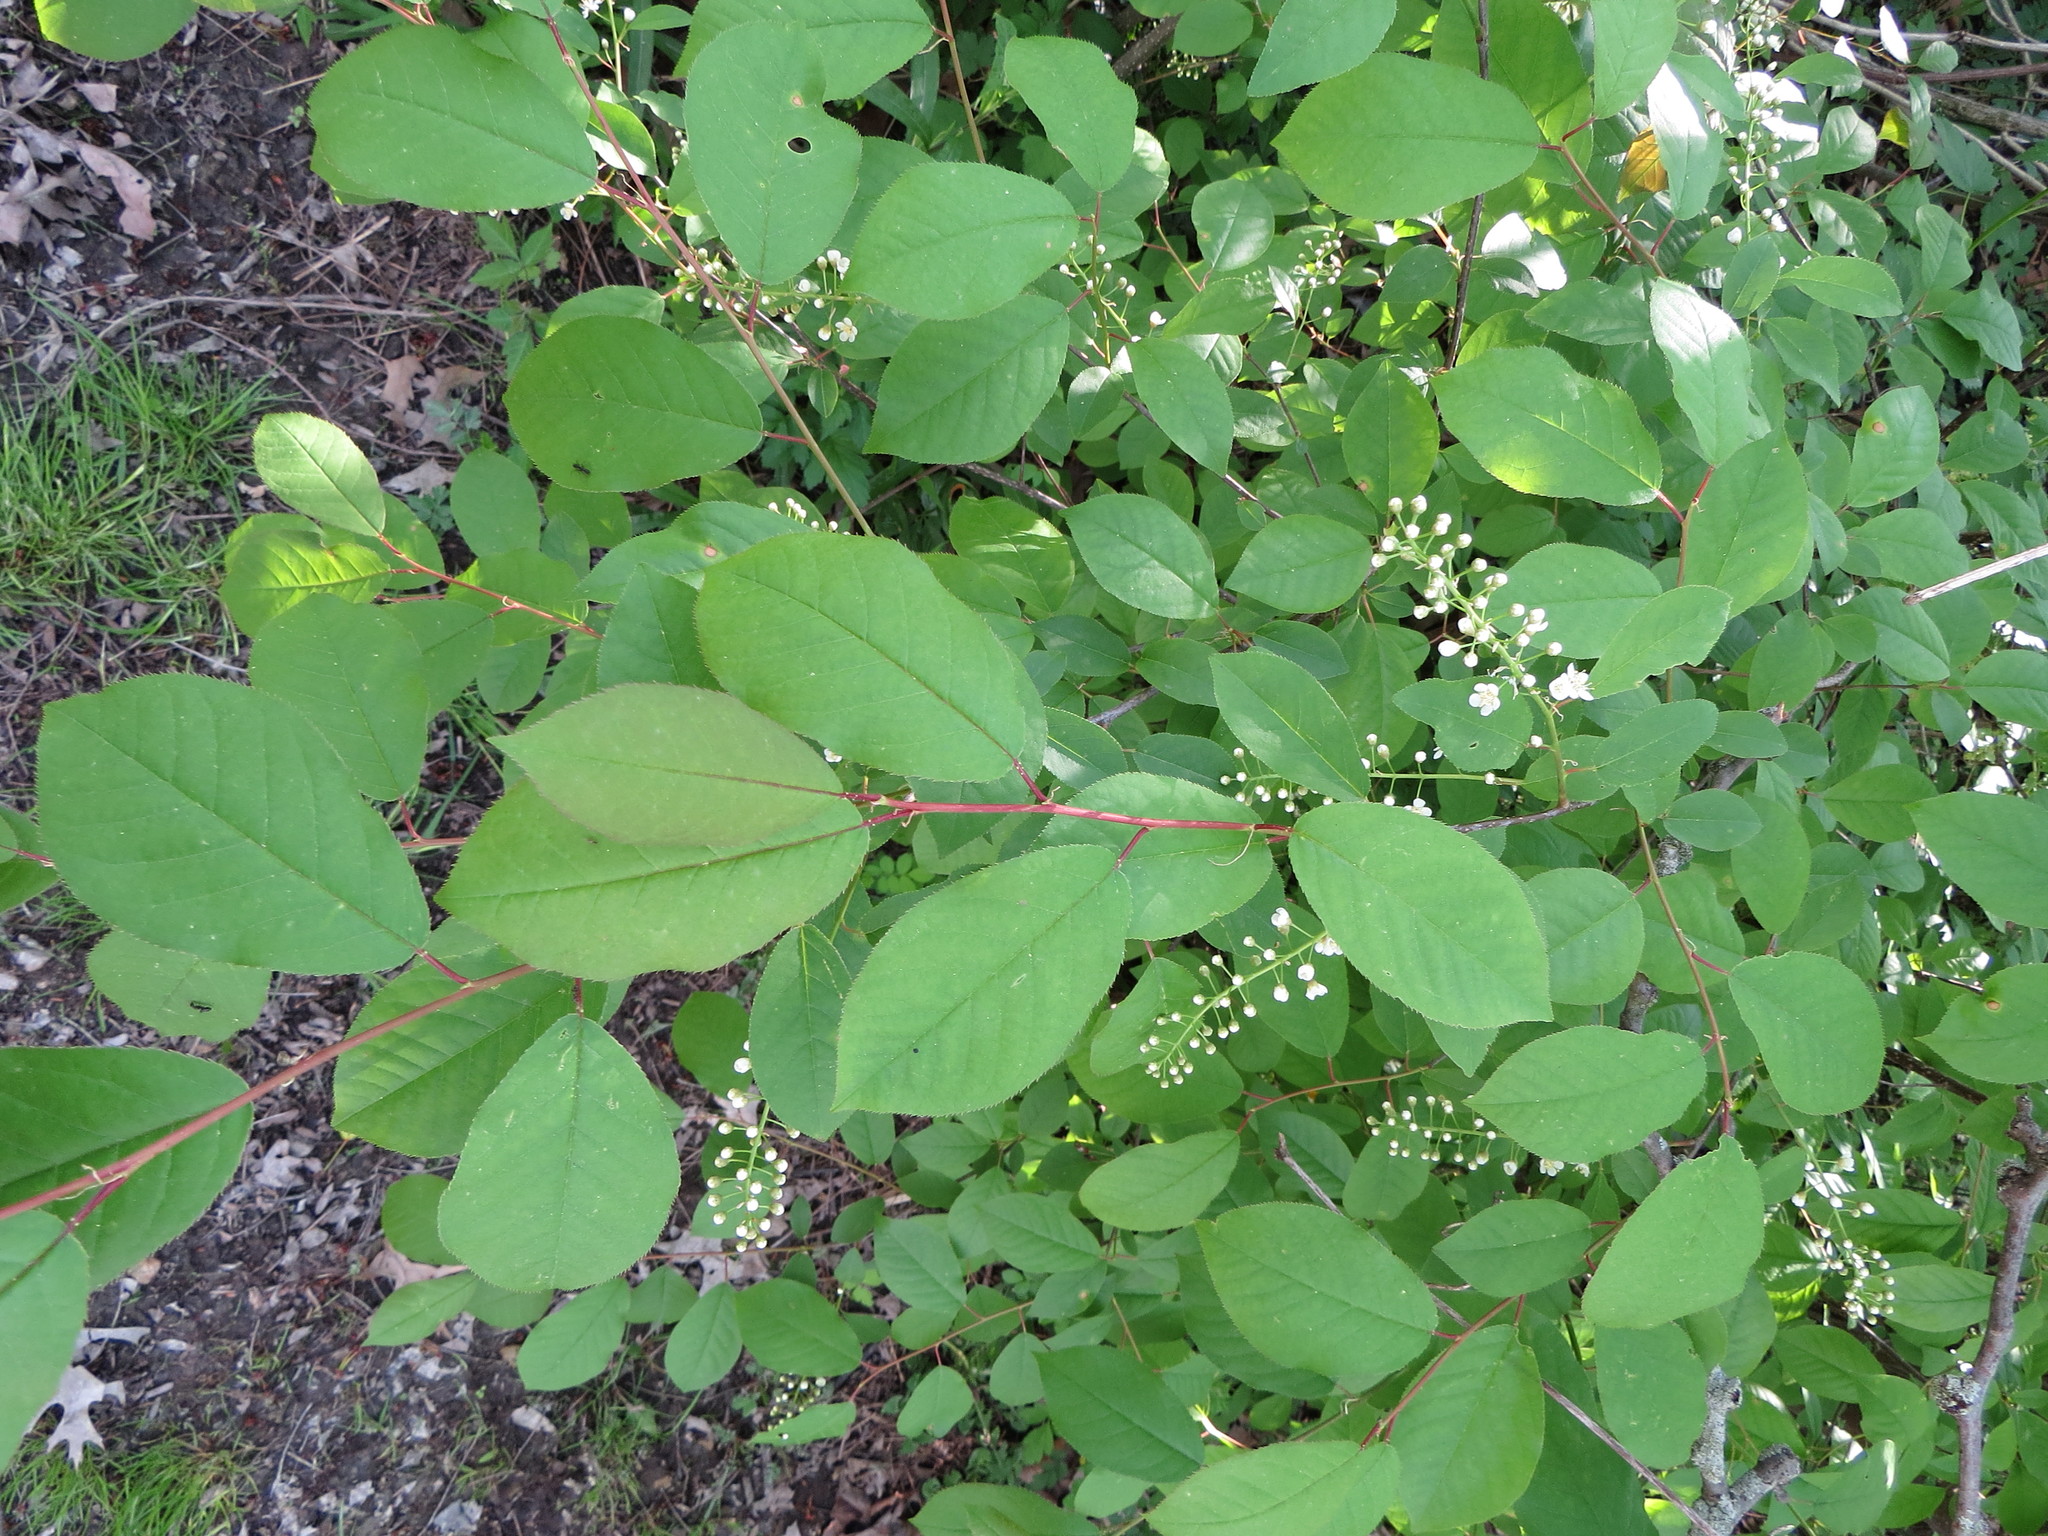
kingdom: Plantae
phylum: Tracheophyta
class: Magnoliopsida
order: Rosales
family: Rosaceae
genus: Prunus
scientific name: Prunus virginiana
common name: Chokecherry
